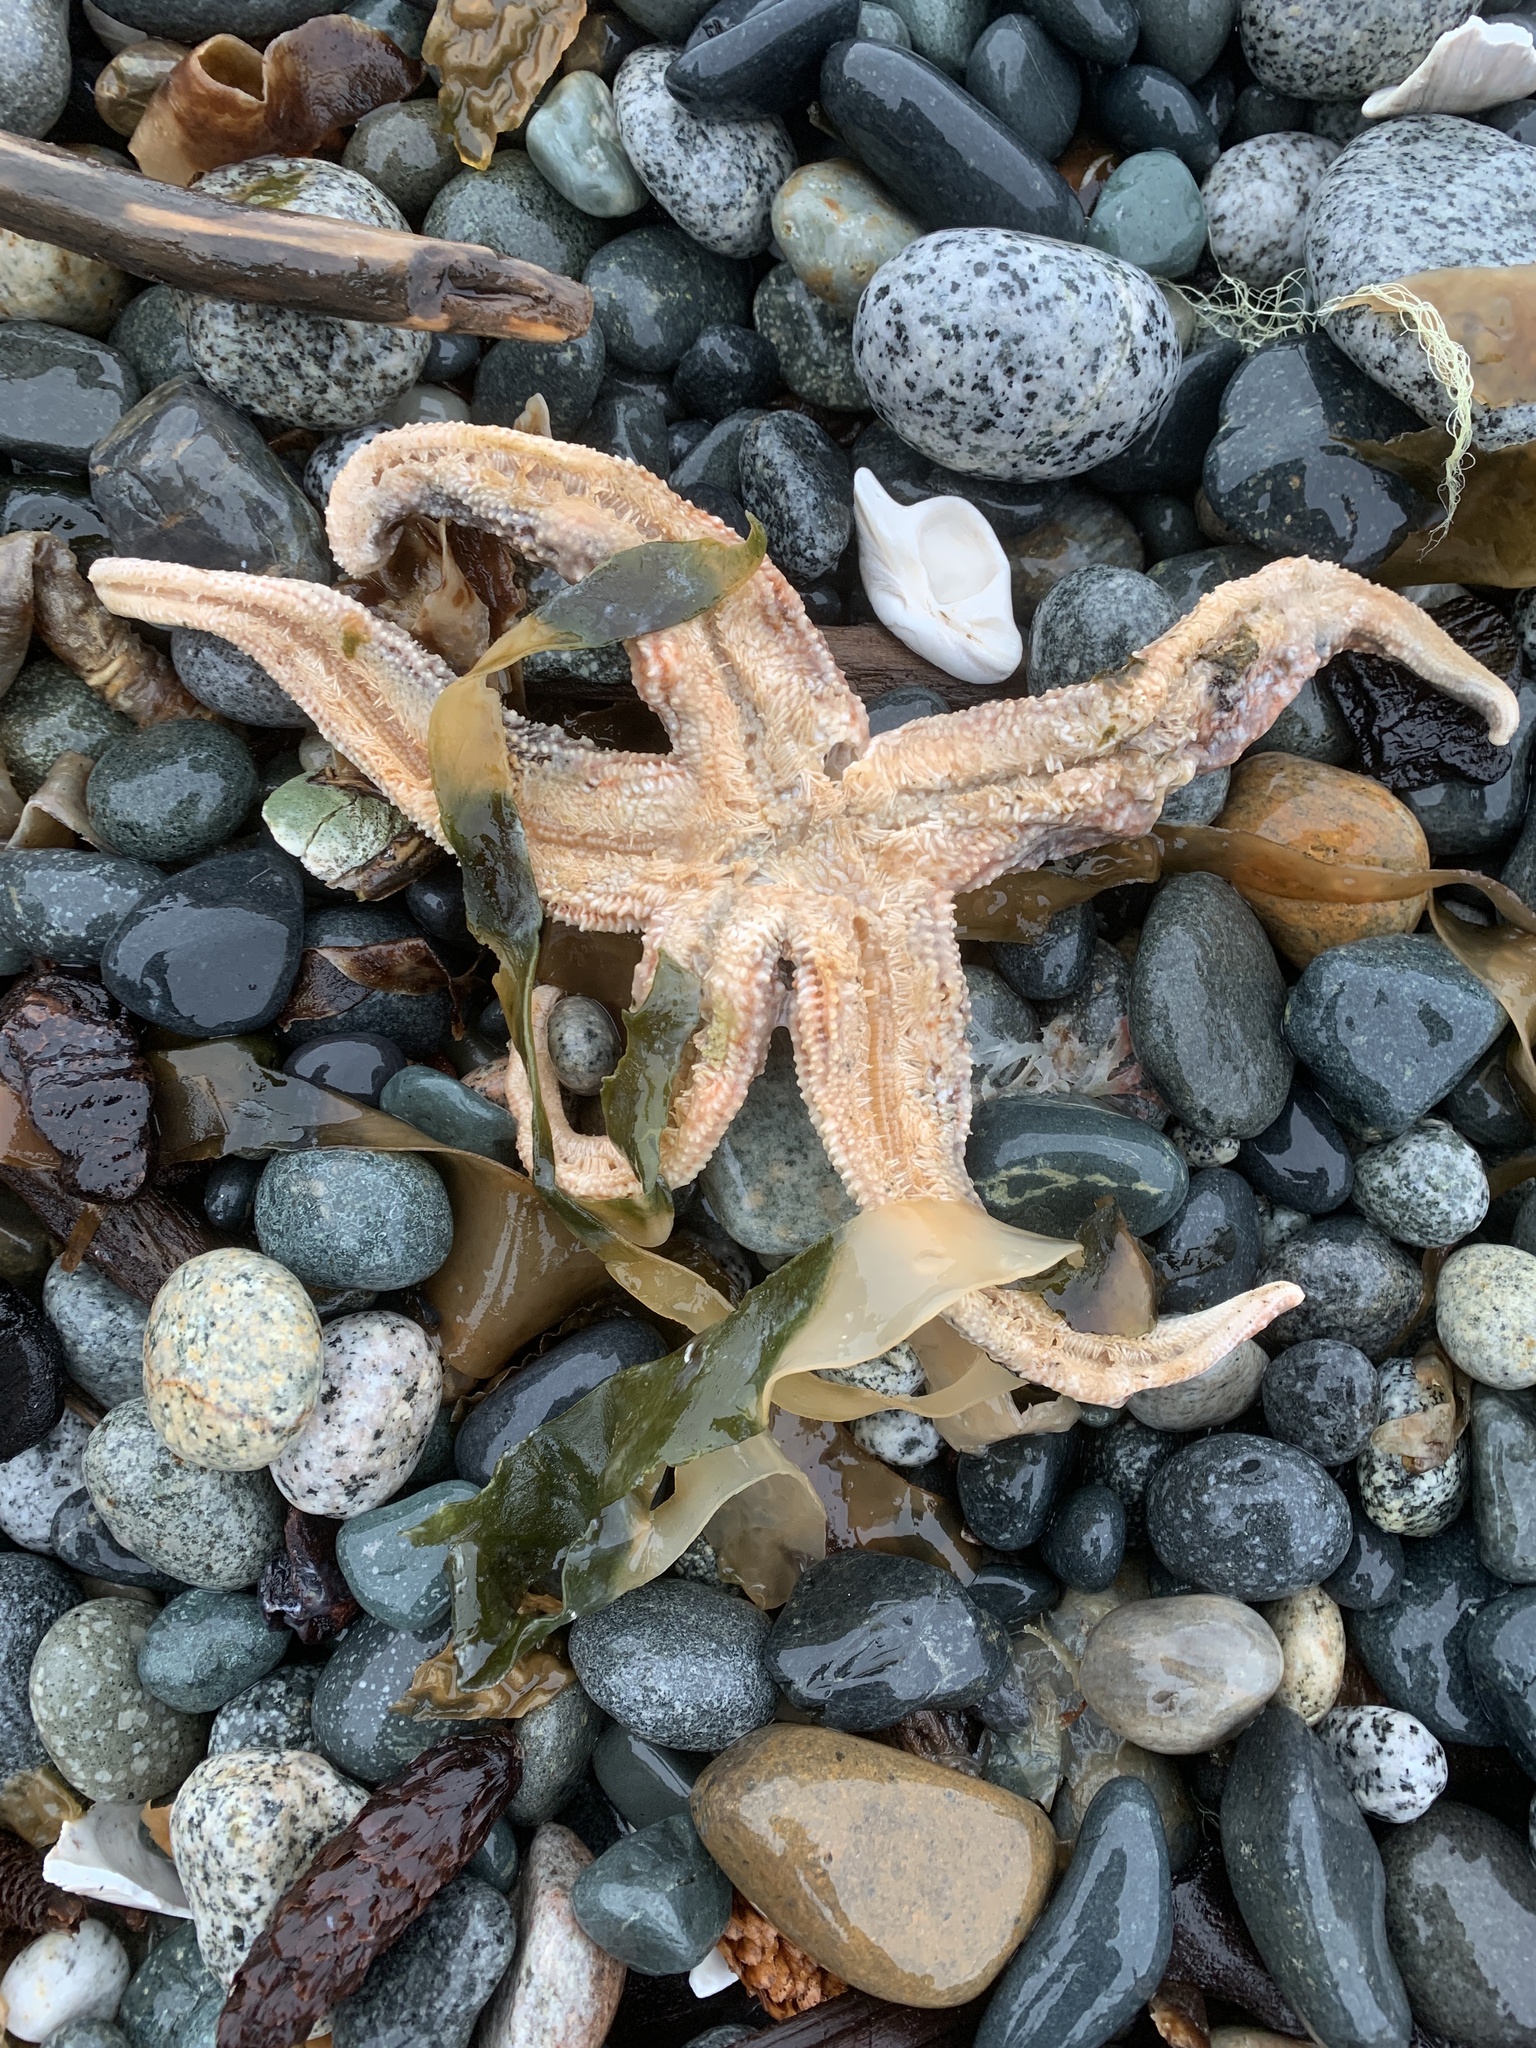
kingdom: Animalia
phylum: Echinodermata
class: Asteroidea
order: Forcipulatida
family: Asteriidae
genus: Evasterias
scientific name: Evasterias troschelii
